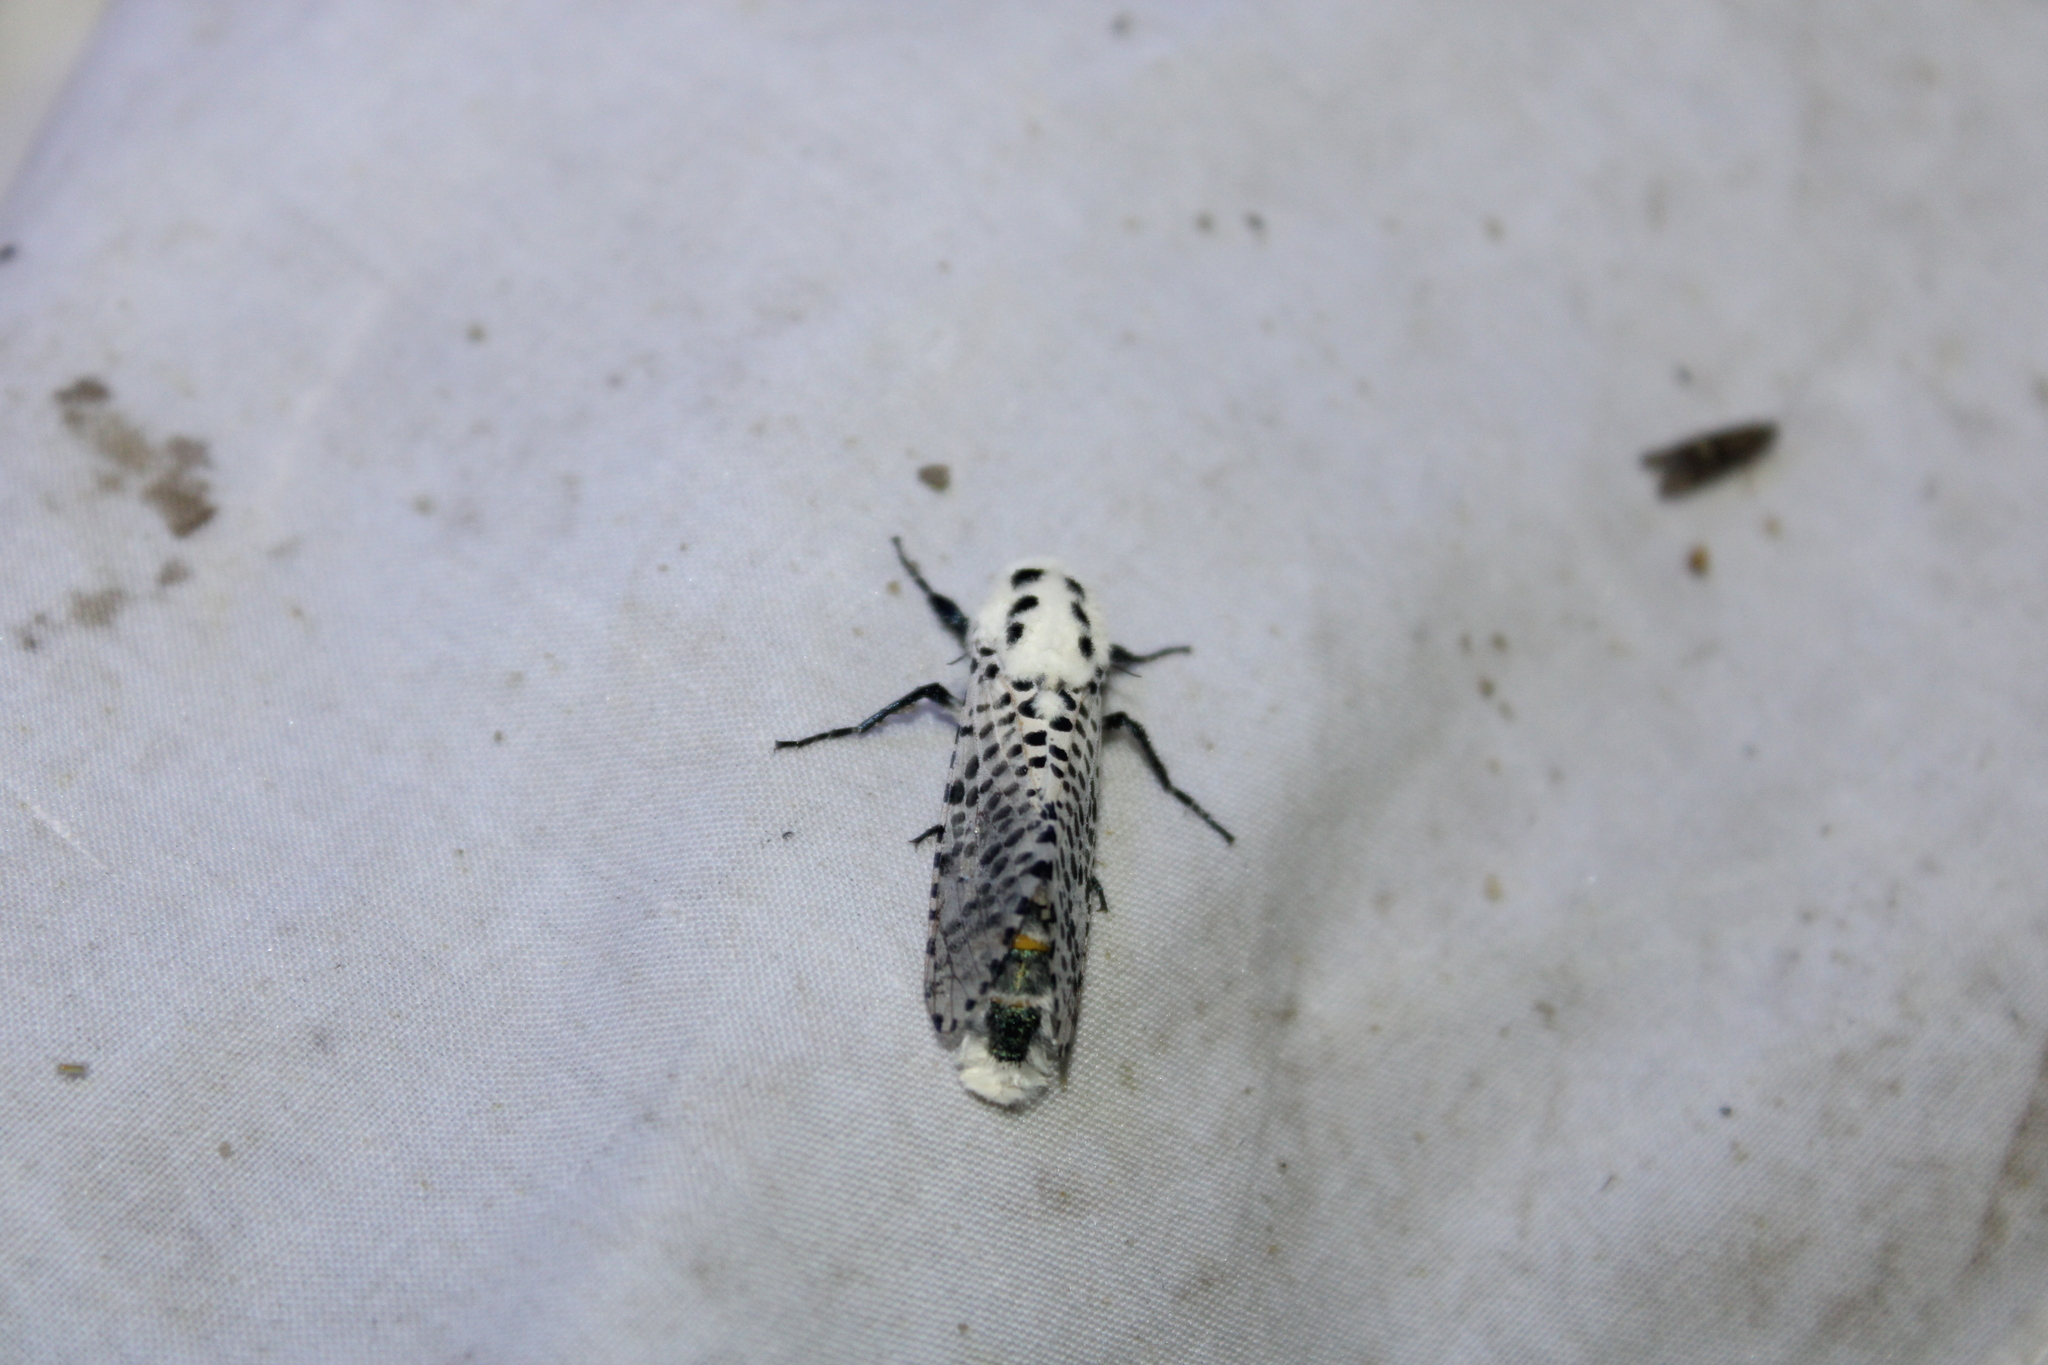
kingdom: Animalia
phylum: Arthropoda
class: Insecta
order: Lepidoptera
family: Cossidae
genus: Zeuzera
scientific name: Zeuzera pyrina
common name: Leopard moth
